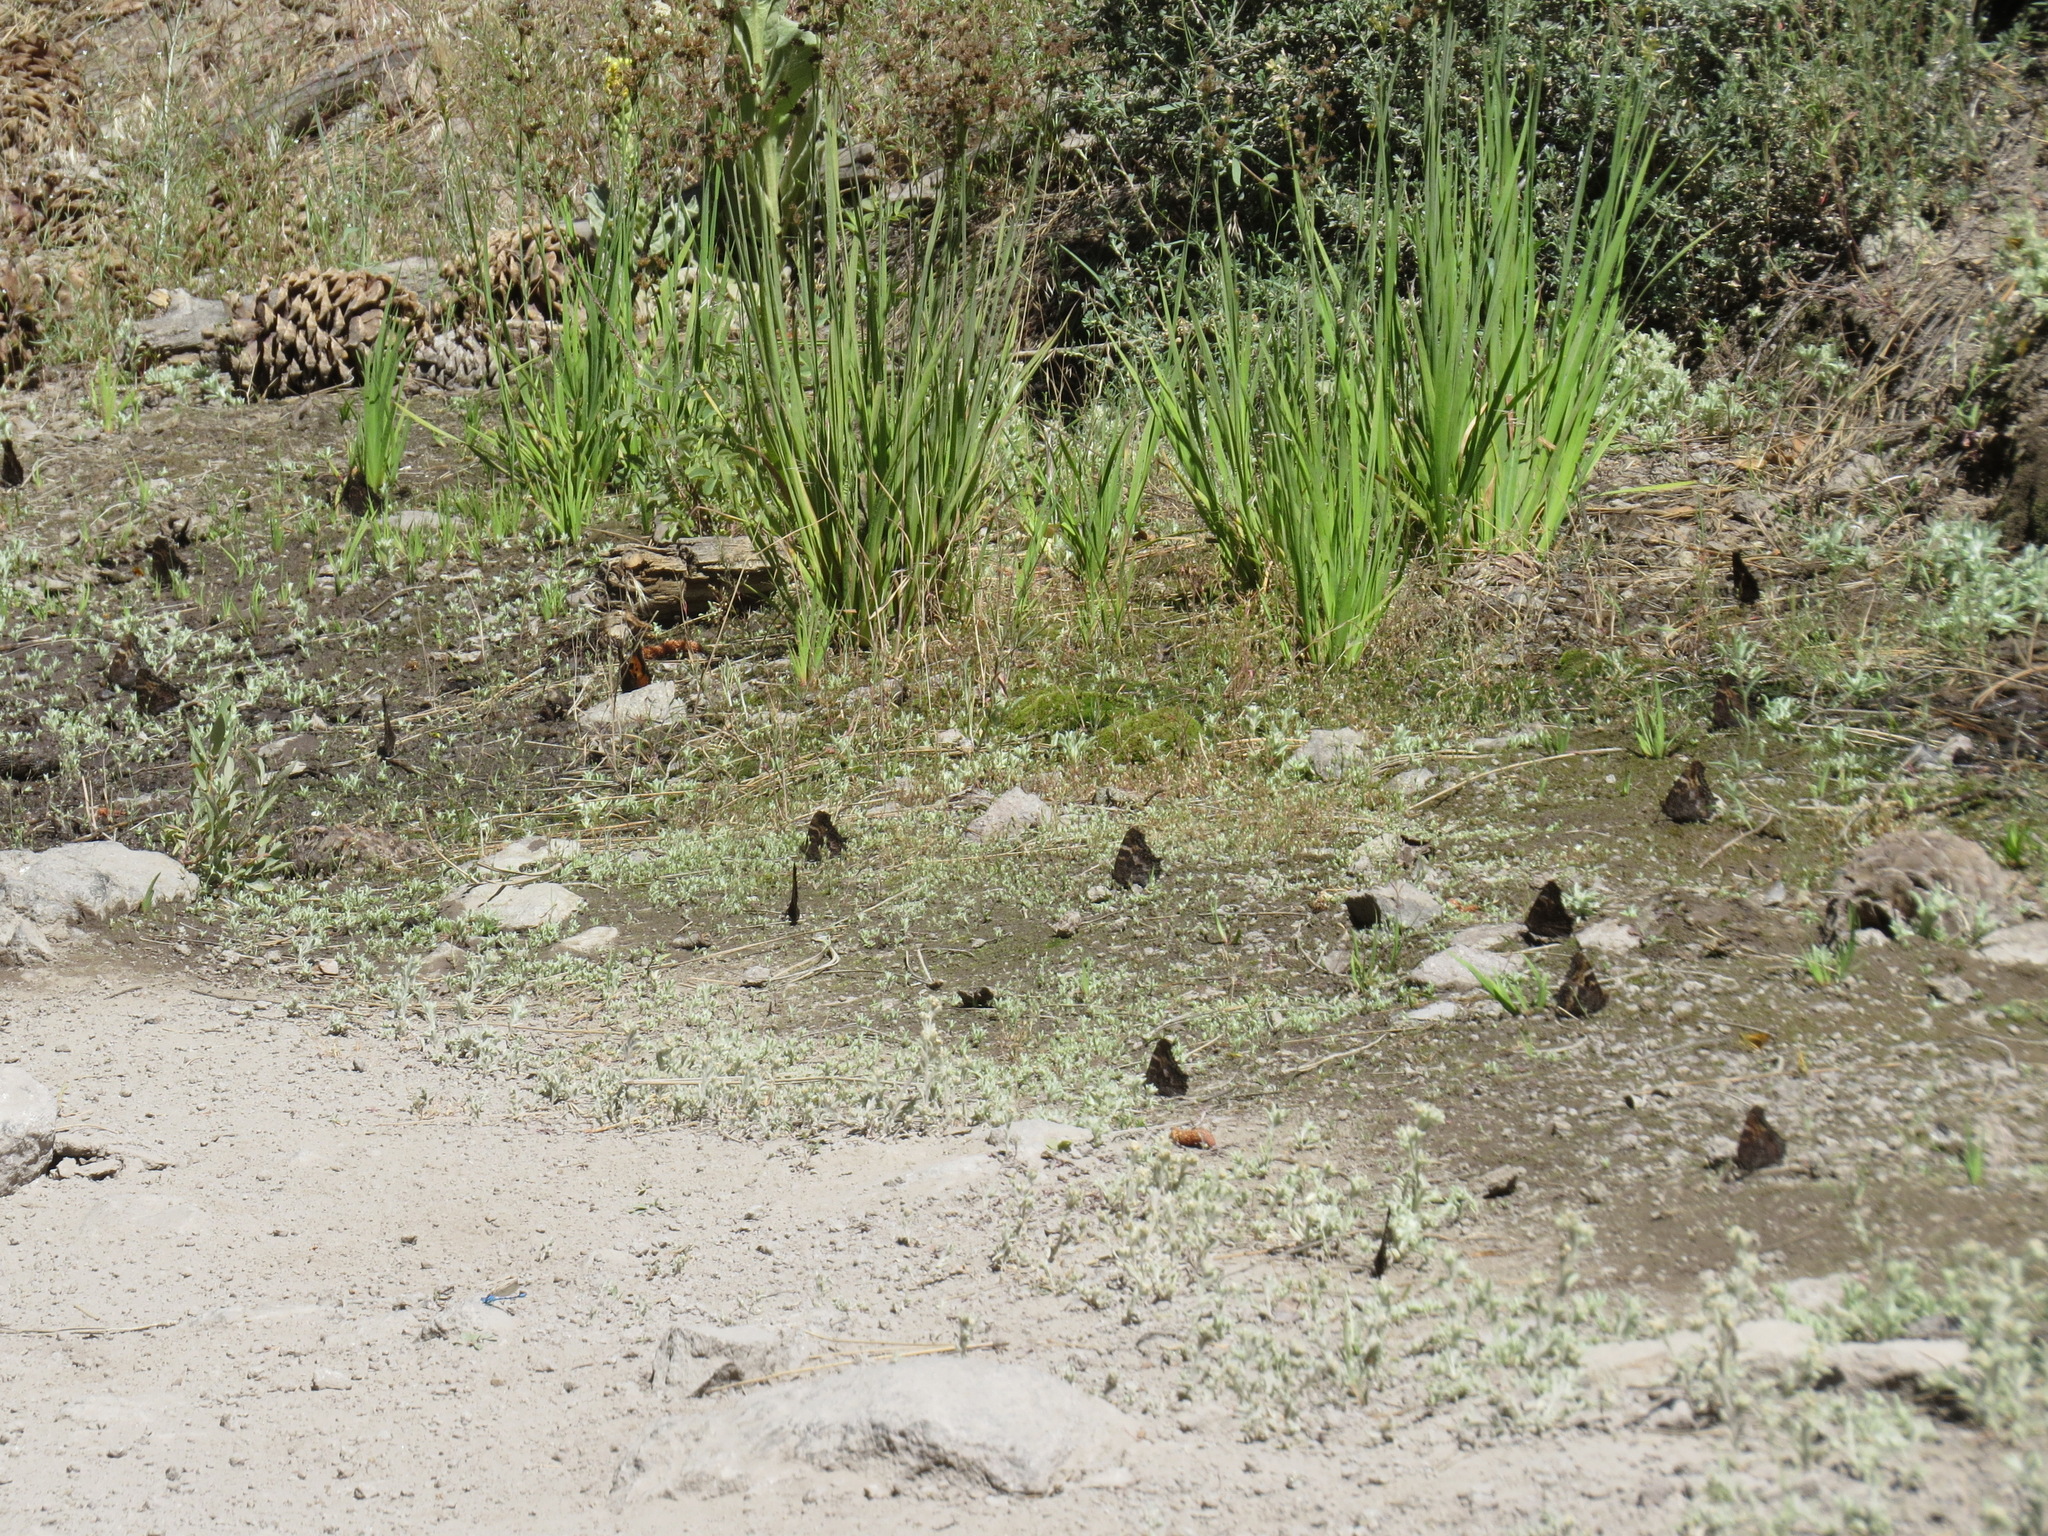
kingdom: Animalia
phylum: Arthropoda
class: Insecta
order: Lepidoptera
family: Nymphalidae
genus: Nymphalis
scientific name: Nymphalis californica
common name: California tortoiseshell
